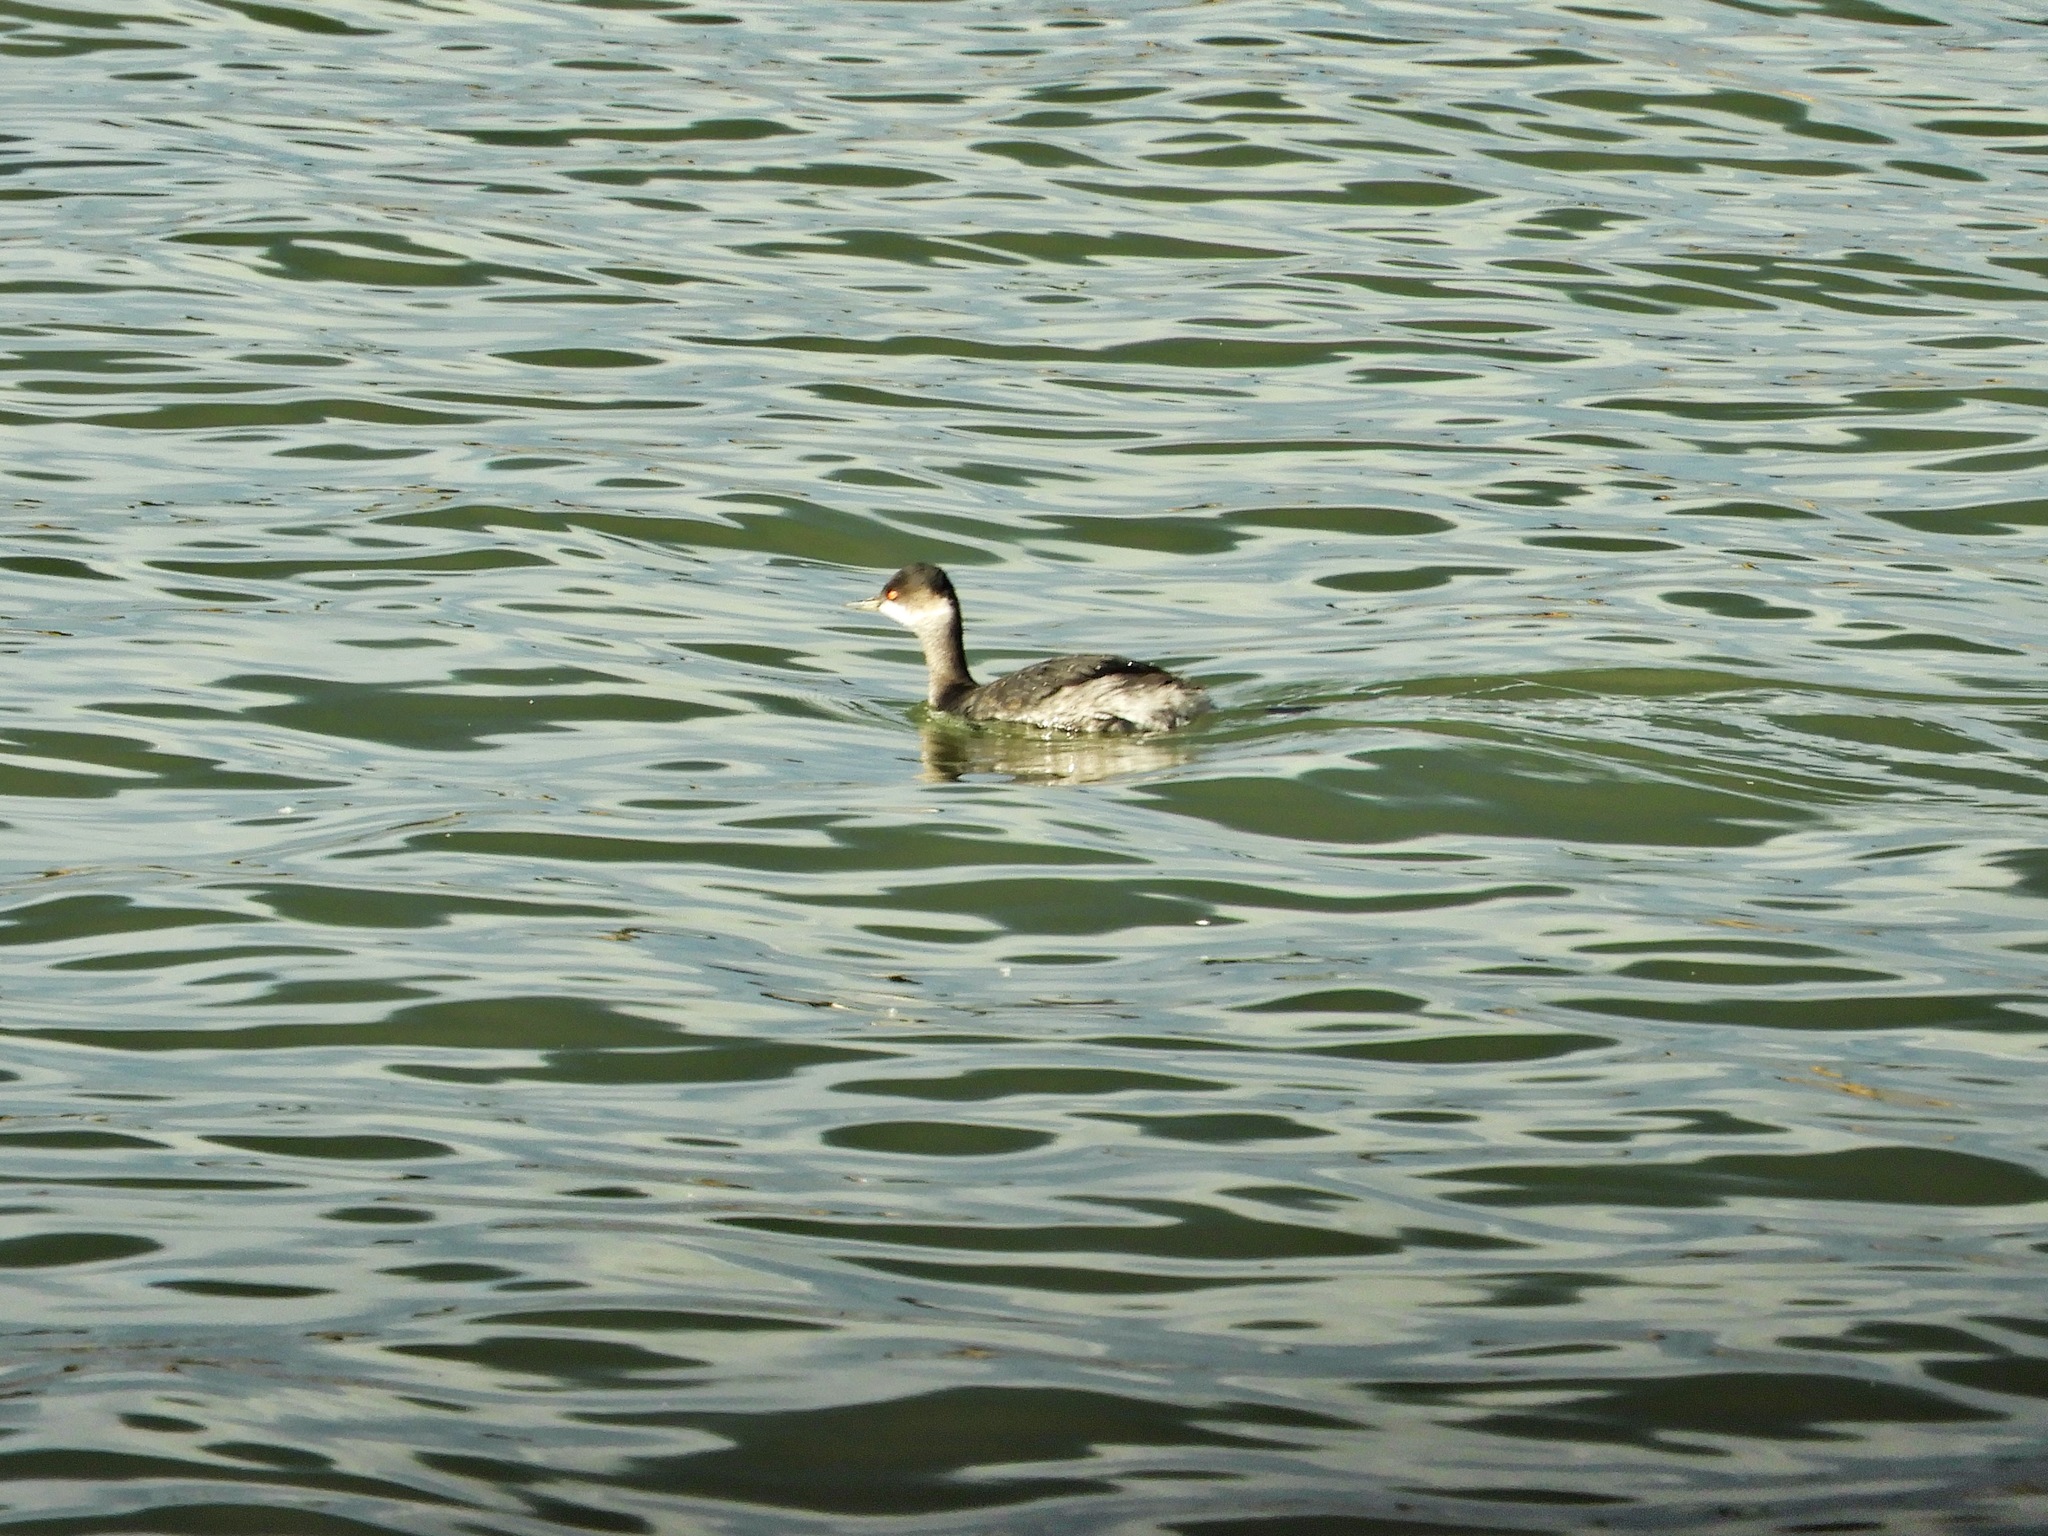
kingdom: Animalia
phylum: Chordata
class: Aves
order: Podicipediformes
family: Podicipedidae
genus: Podiceps
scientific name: Podiceps nigricollis
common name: Black-necked grebe
